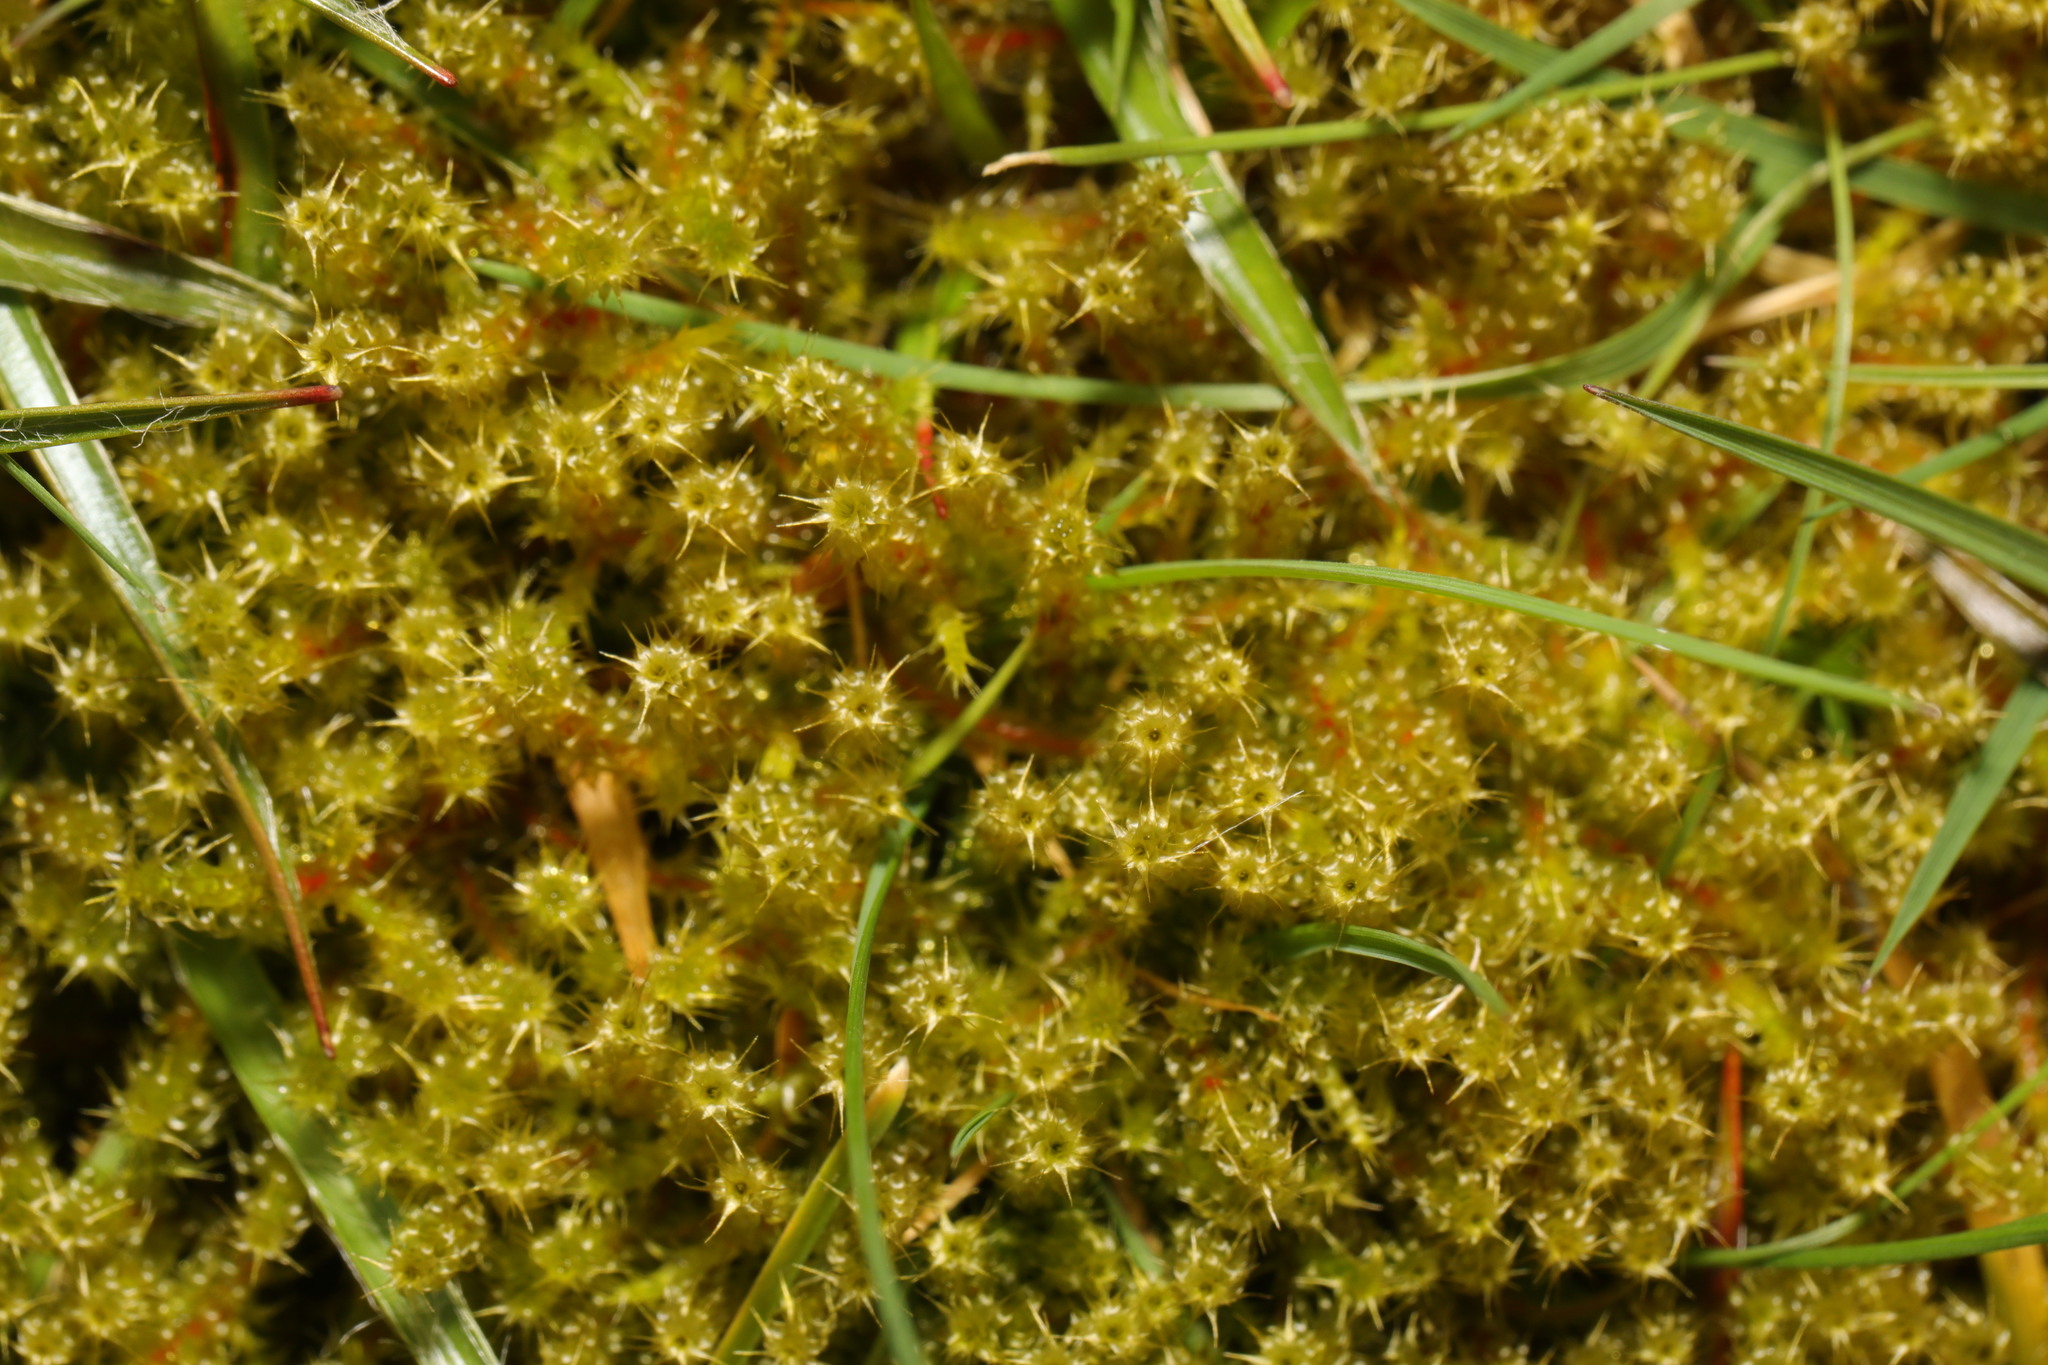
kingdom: Plantae
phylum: Bryophyta
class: Bryopsida
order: Hypnales
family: Hylocomiaceae
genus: Rhytidiadelphus
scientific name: Rhytidiadelphus squarrosus
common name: Springy turf-moss
